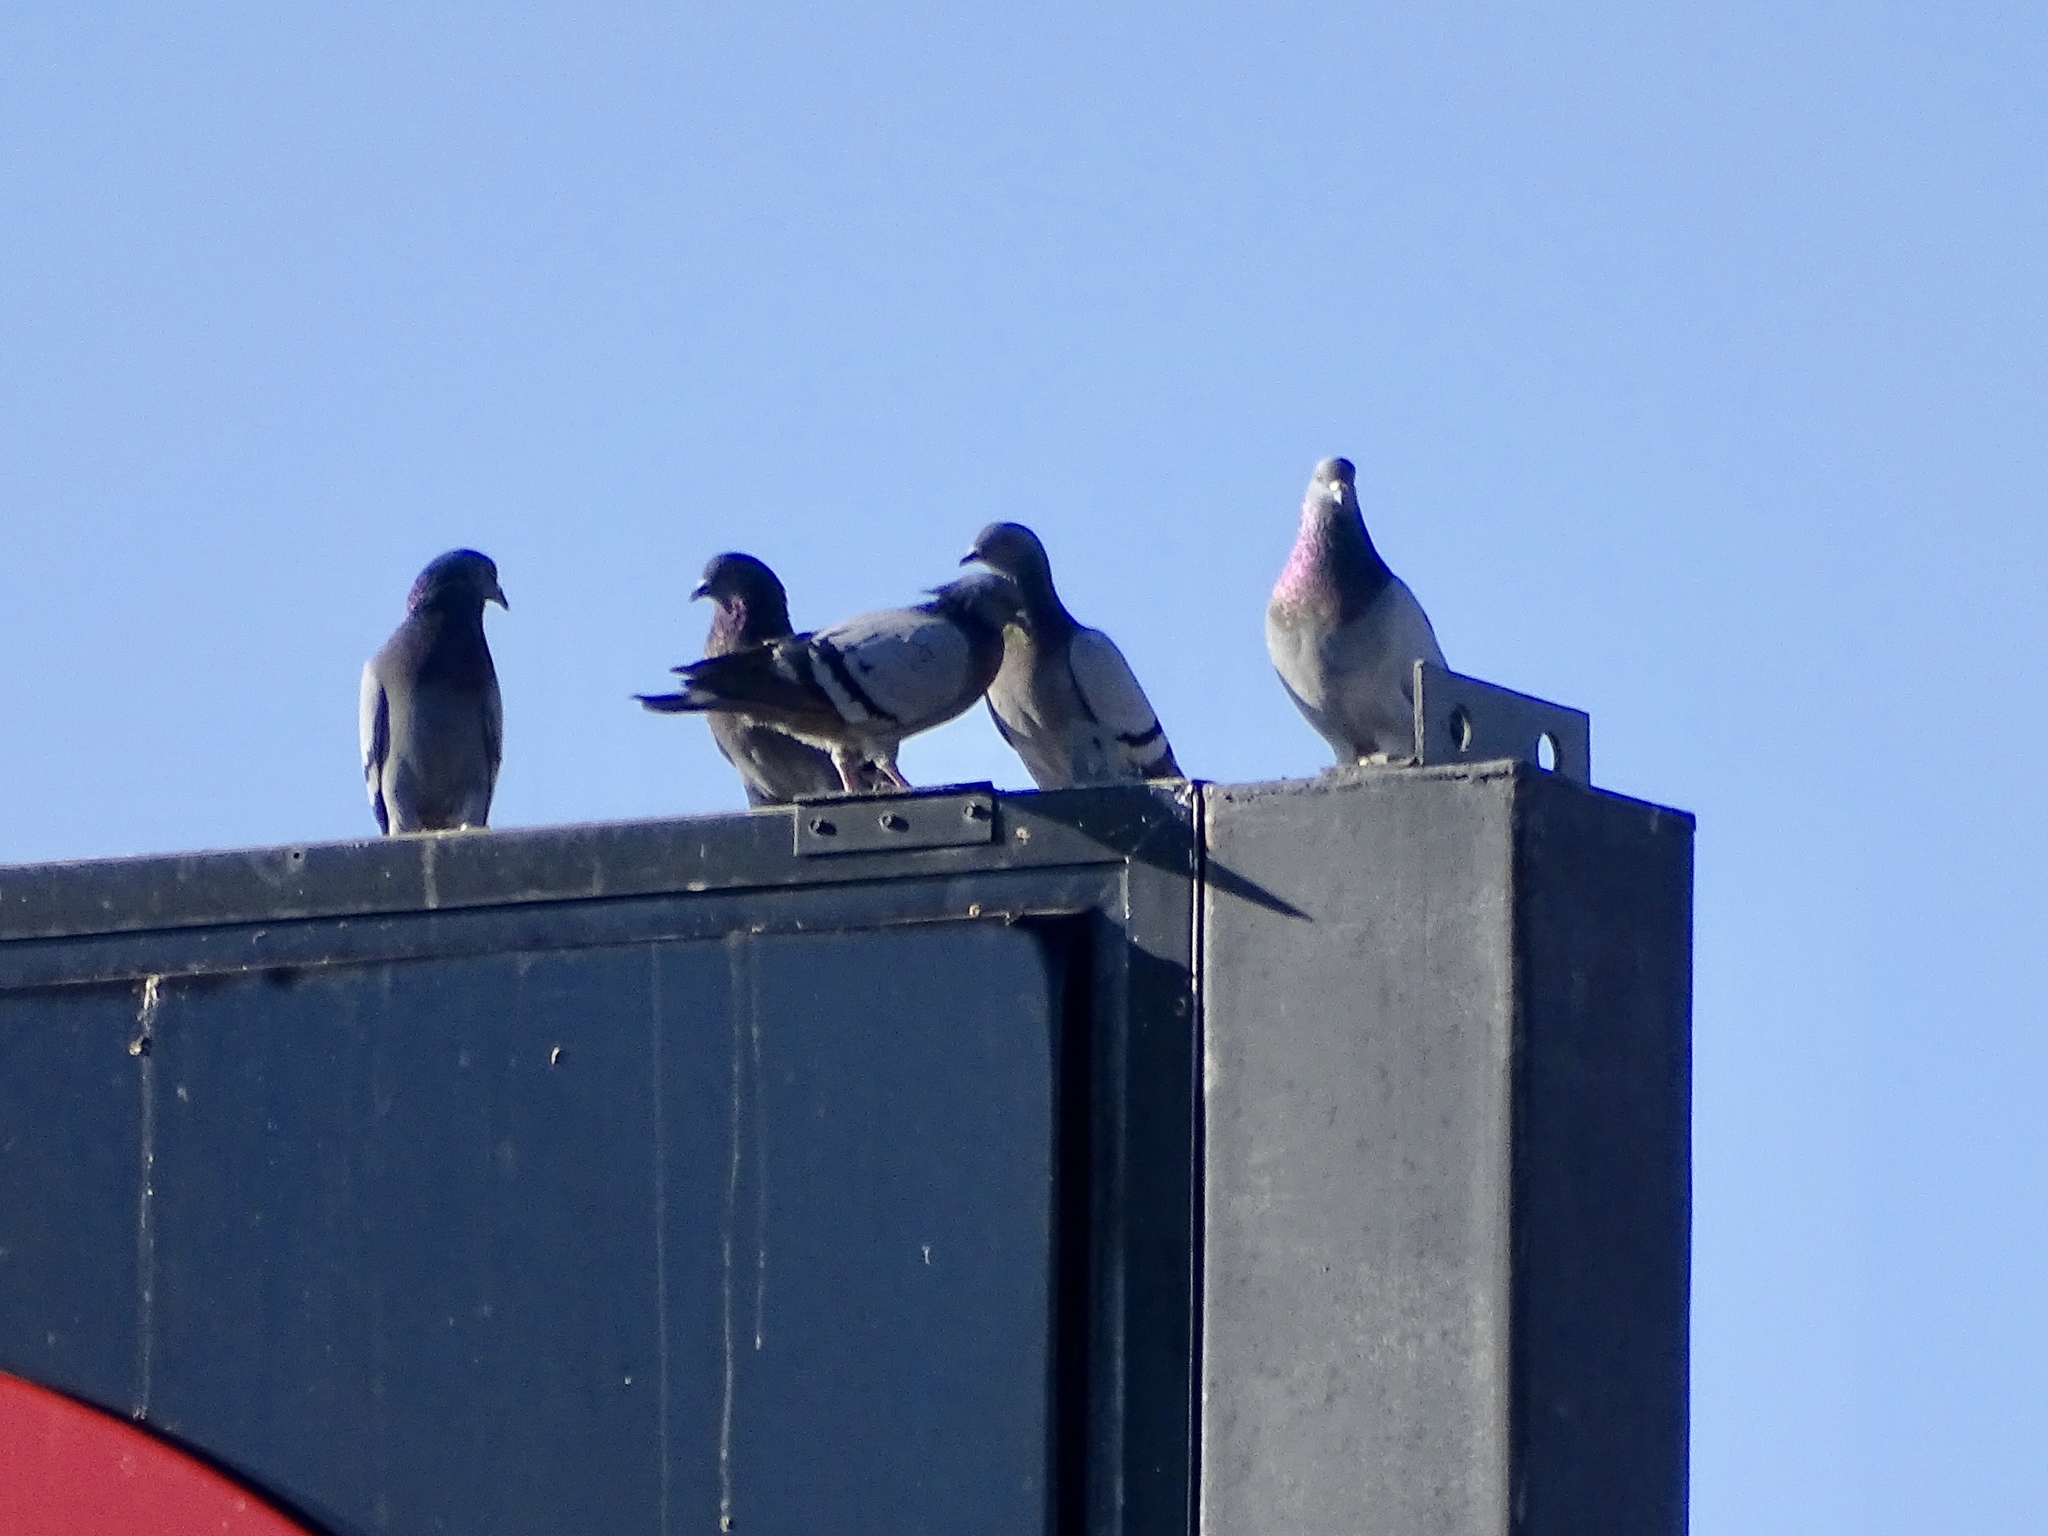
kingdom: Animalia
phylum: Chordata
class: Aves
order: Columbiformes
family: Columbidae
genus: Columba
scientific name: Columba livia
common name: Rock pigeon
